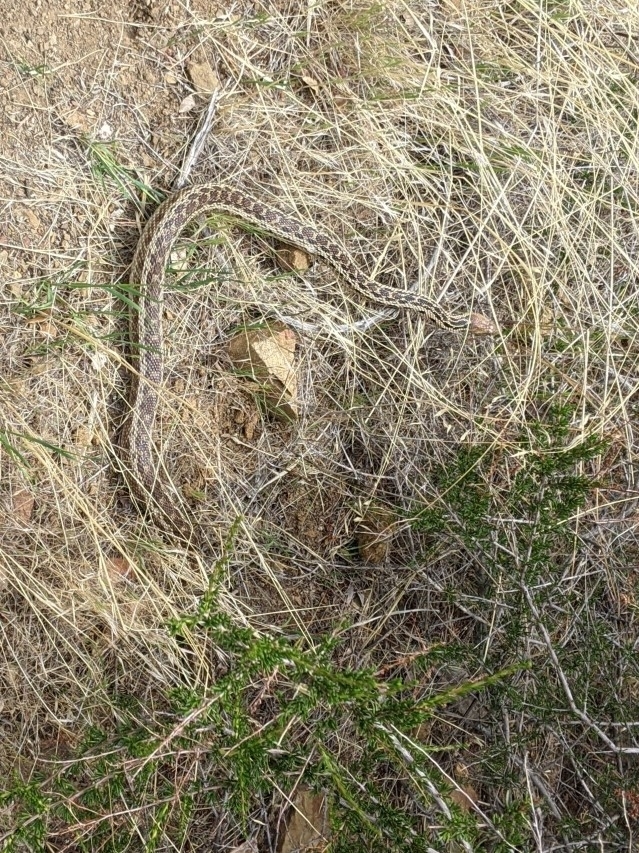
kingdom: Animalia
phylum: Chordata
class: Squamata
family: Colubridae
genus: Pituophis
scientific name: Pituophis catenifer
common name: Gopher snake
